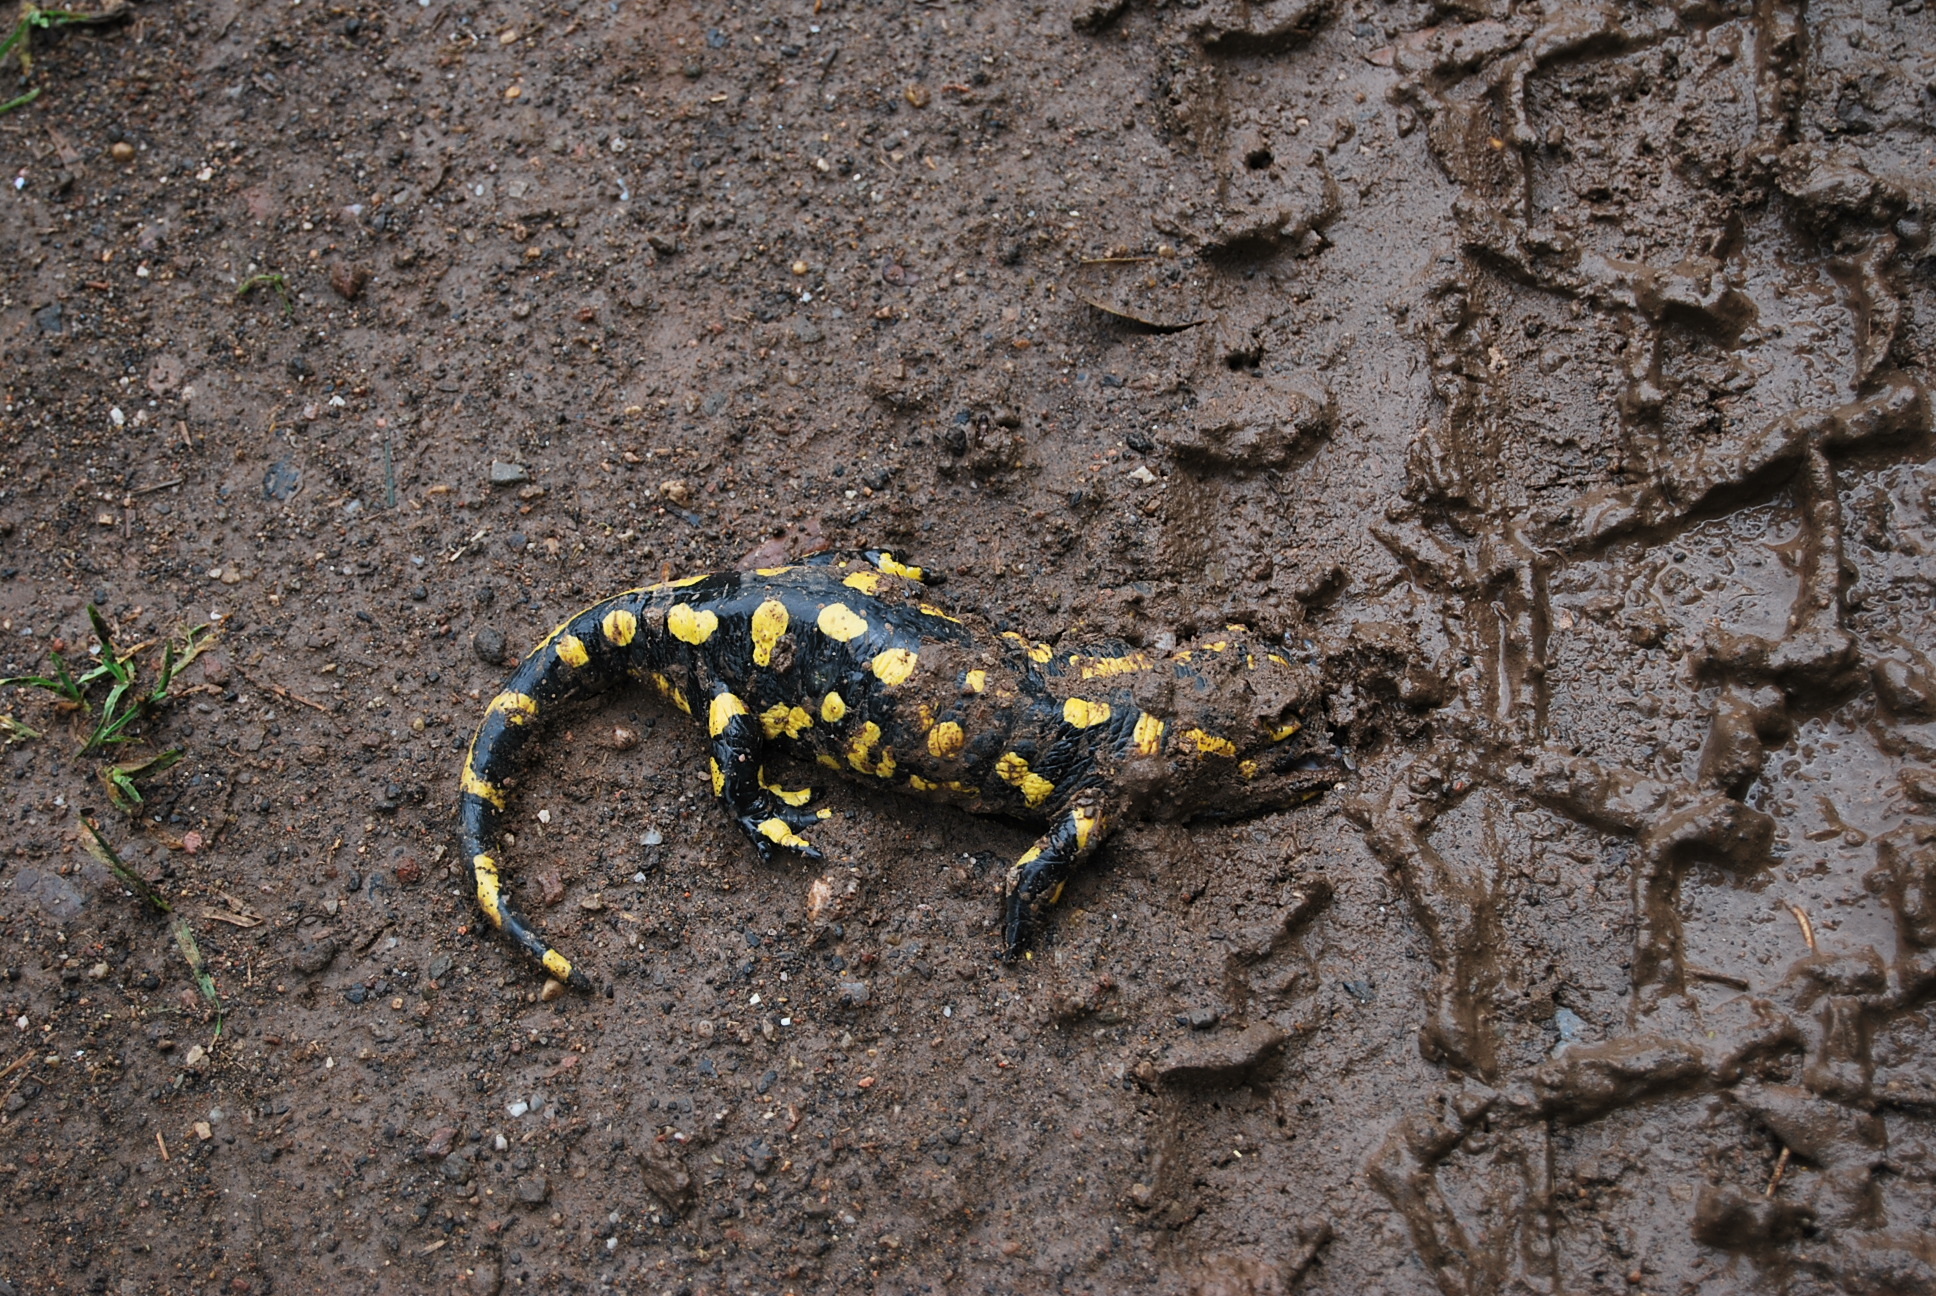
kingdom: Animalia
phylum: Chordata
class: Amphibia
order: Caudata
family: Salamandridae
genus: Salamandra
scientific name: Salamandra salamandra
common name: Fire salamander
